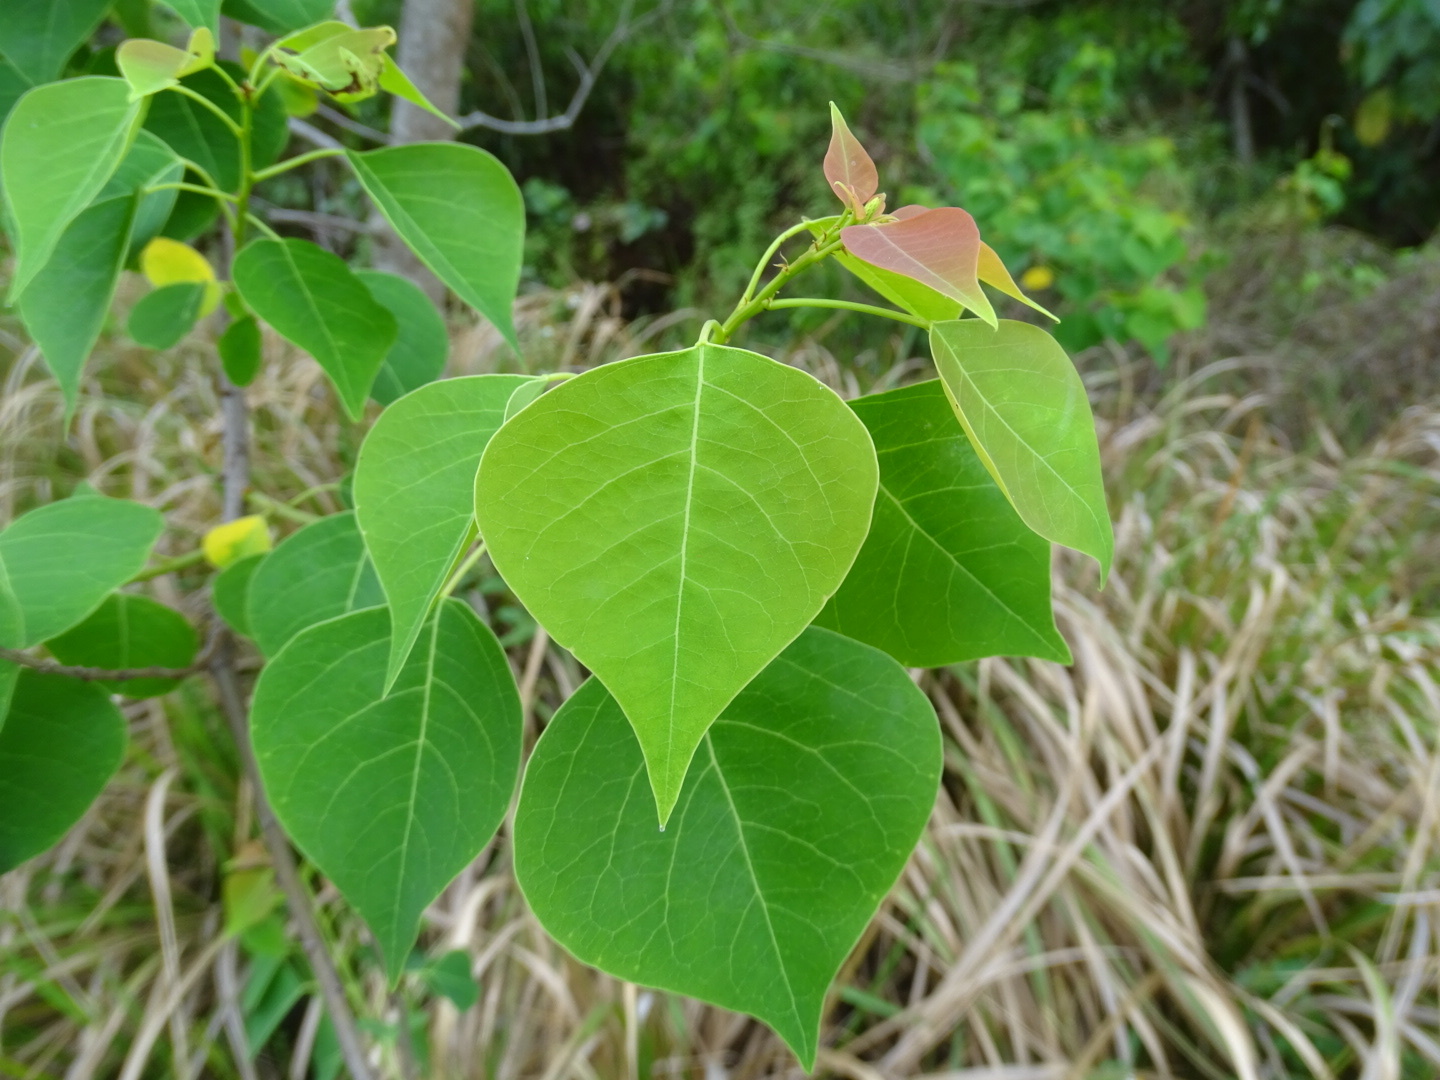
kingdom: Plantae
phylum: Tracheophyta
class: Magnoliopsida
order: Malpighiales
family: Euphorbiaceae
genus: Triadica
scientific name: Triadica sebifera
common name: Chinese tallow
